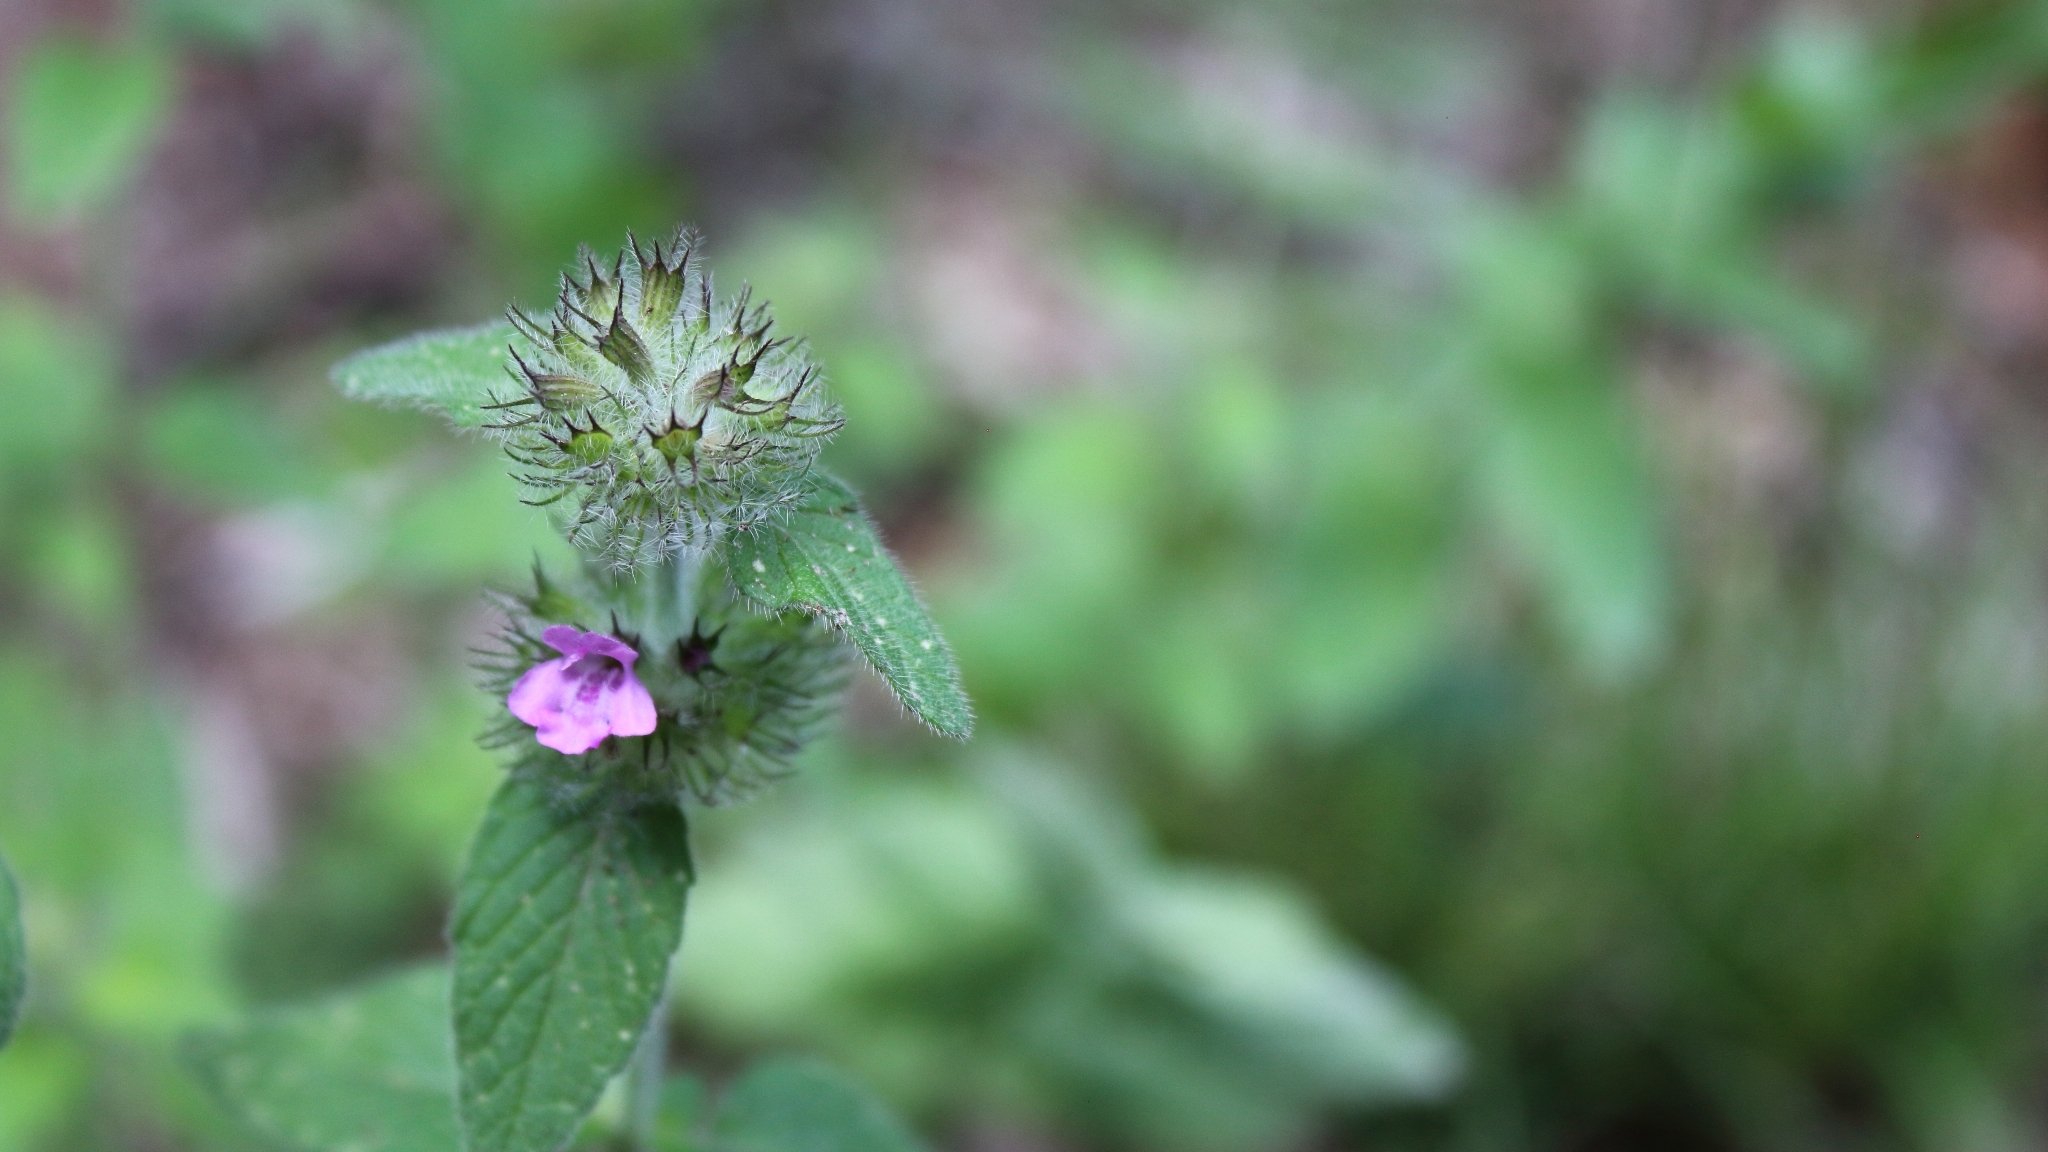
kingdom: Plantae
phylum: Tracheophyta
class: Magnoliopsida
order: Lamiales
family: Lamiaceae
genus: Clinopodium
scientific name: Clinopodium vulgare
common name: Wild basil
